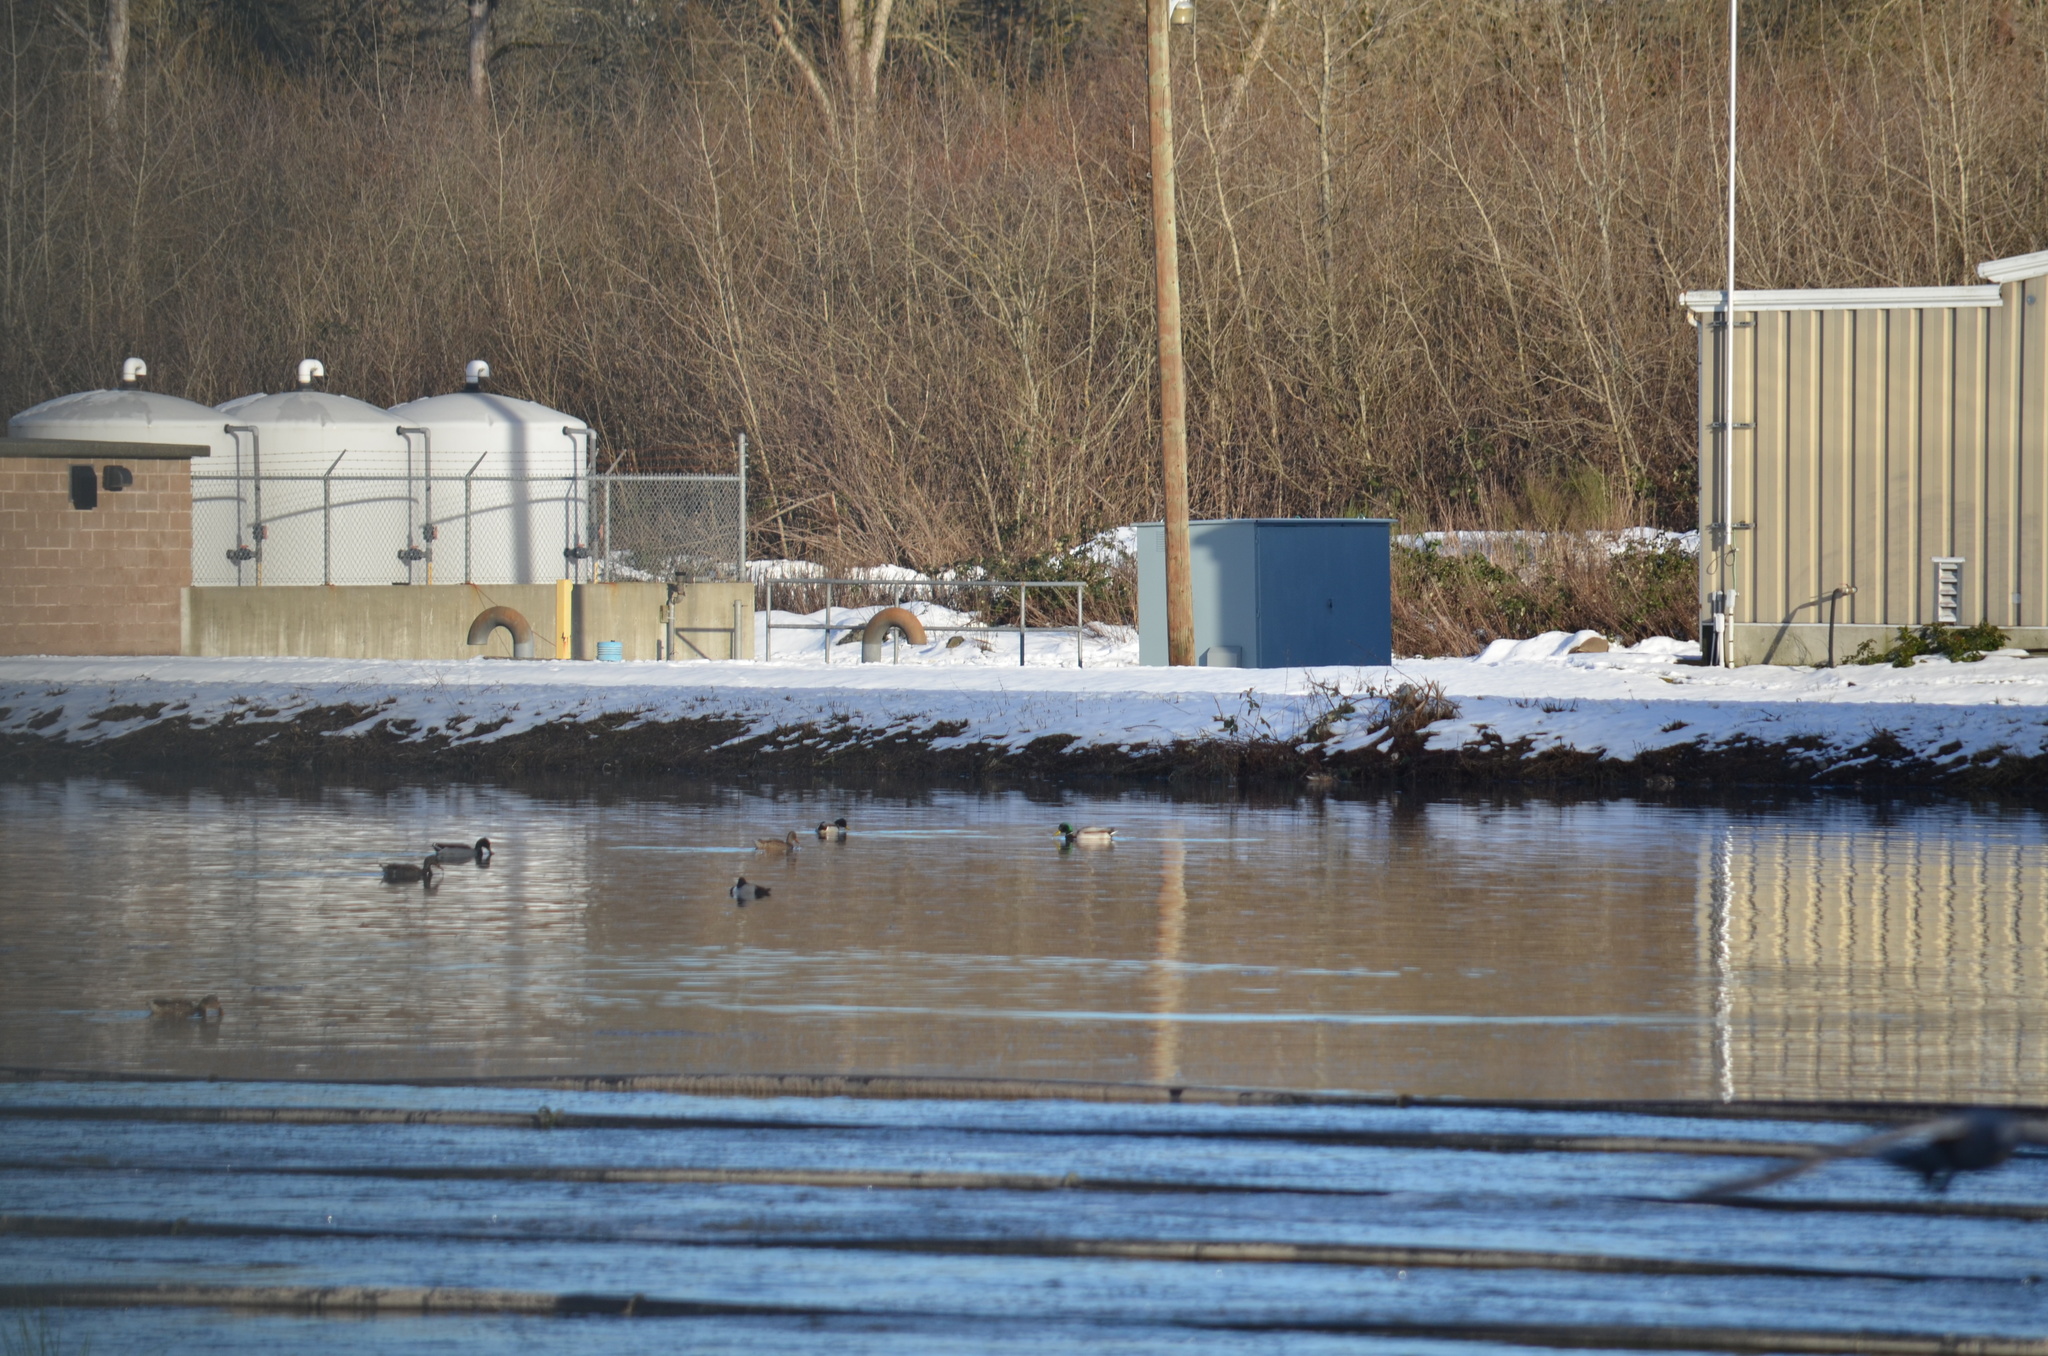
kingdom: Animalia
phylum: Chordata
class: Aves
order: Anseriformes
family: Anatidae
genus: Anas
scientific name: Anas platyrhynchos
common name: Mallard
